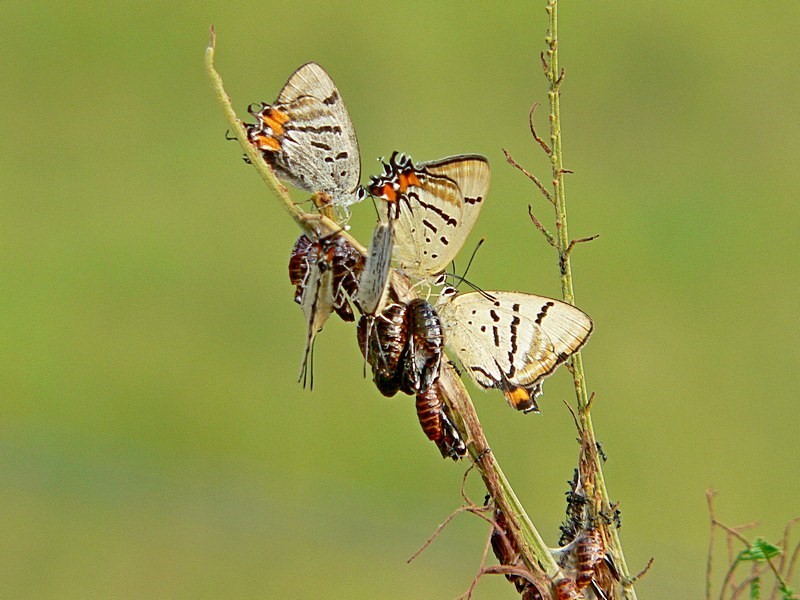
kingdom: Animalia
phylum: Arthropoda
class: Insecta
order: Lepidoptera
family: Lycaenidae
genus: Jalmenus
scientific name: Jalmenus evagoras
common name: Common imperial blue
